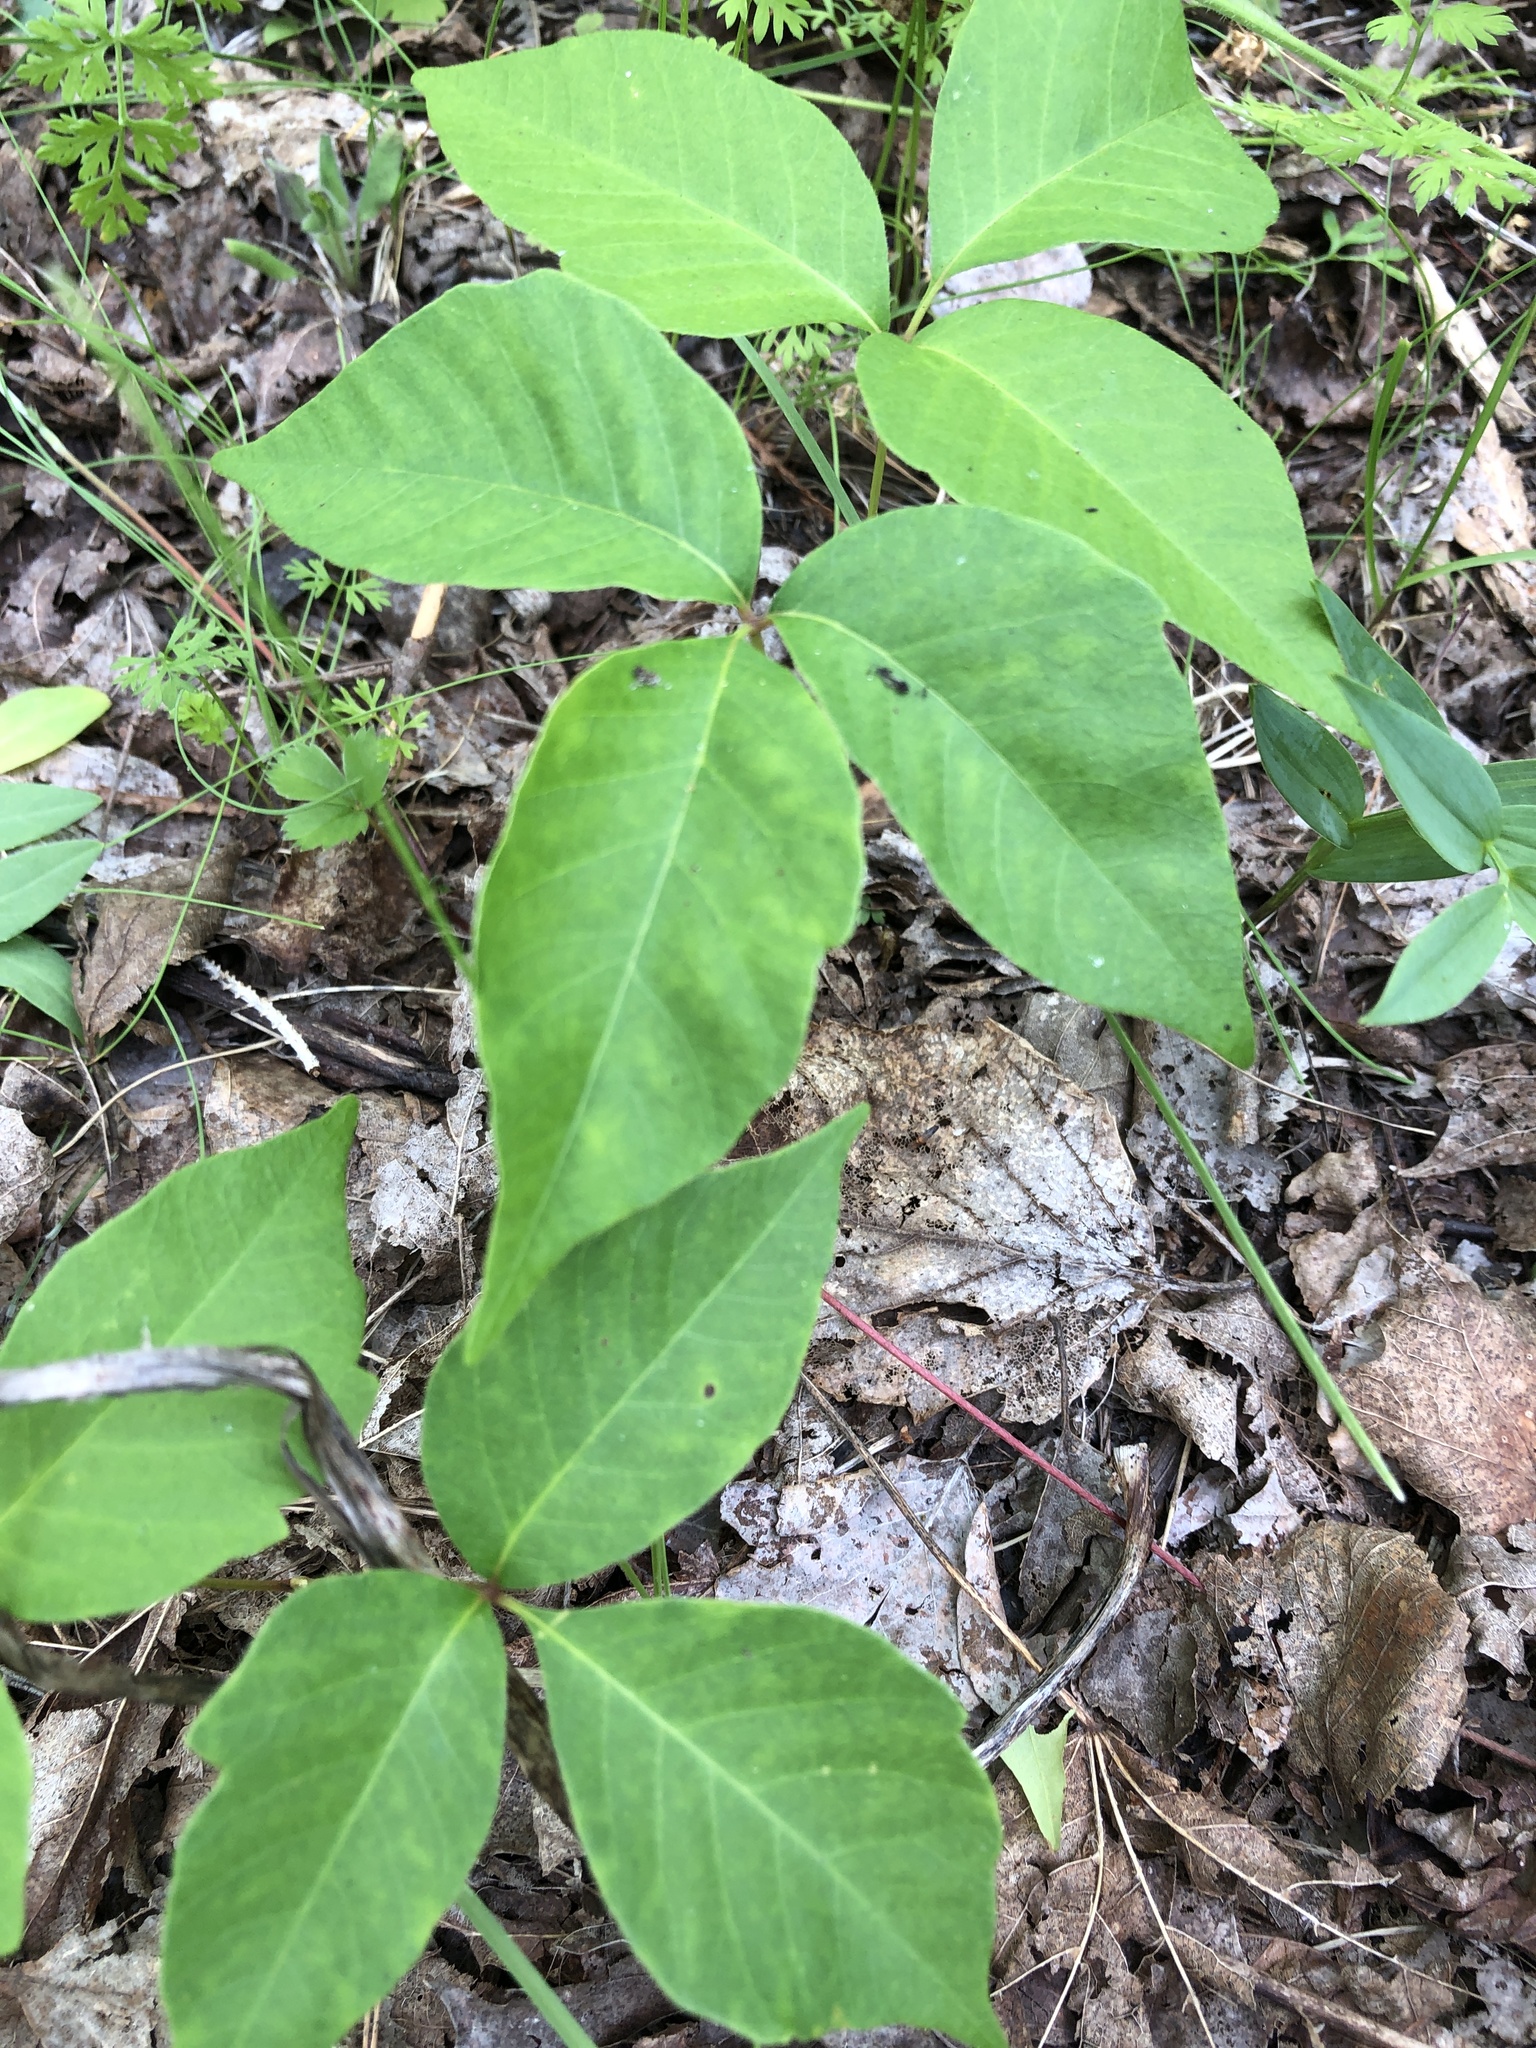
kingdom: Plantae
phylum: Tracheophyta
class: Magnoliopsida
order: Sapindales
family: Anacardiaceae
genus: Toxicodendron
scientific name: Toxicodendron rydbergii
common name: Rydberg's poison-ivy
